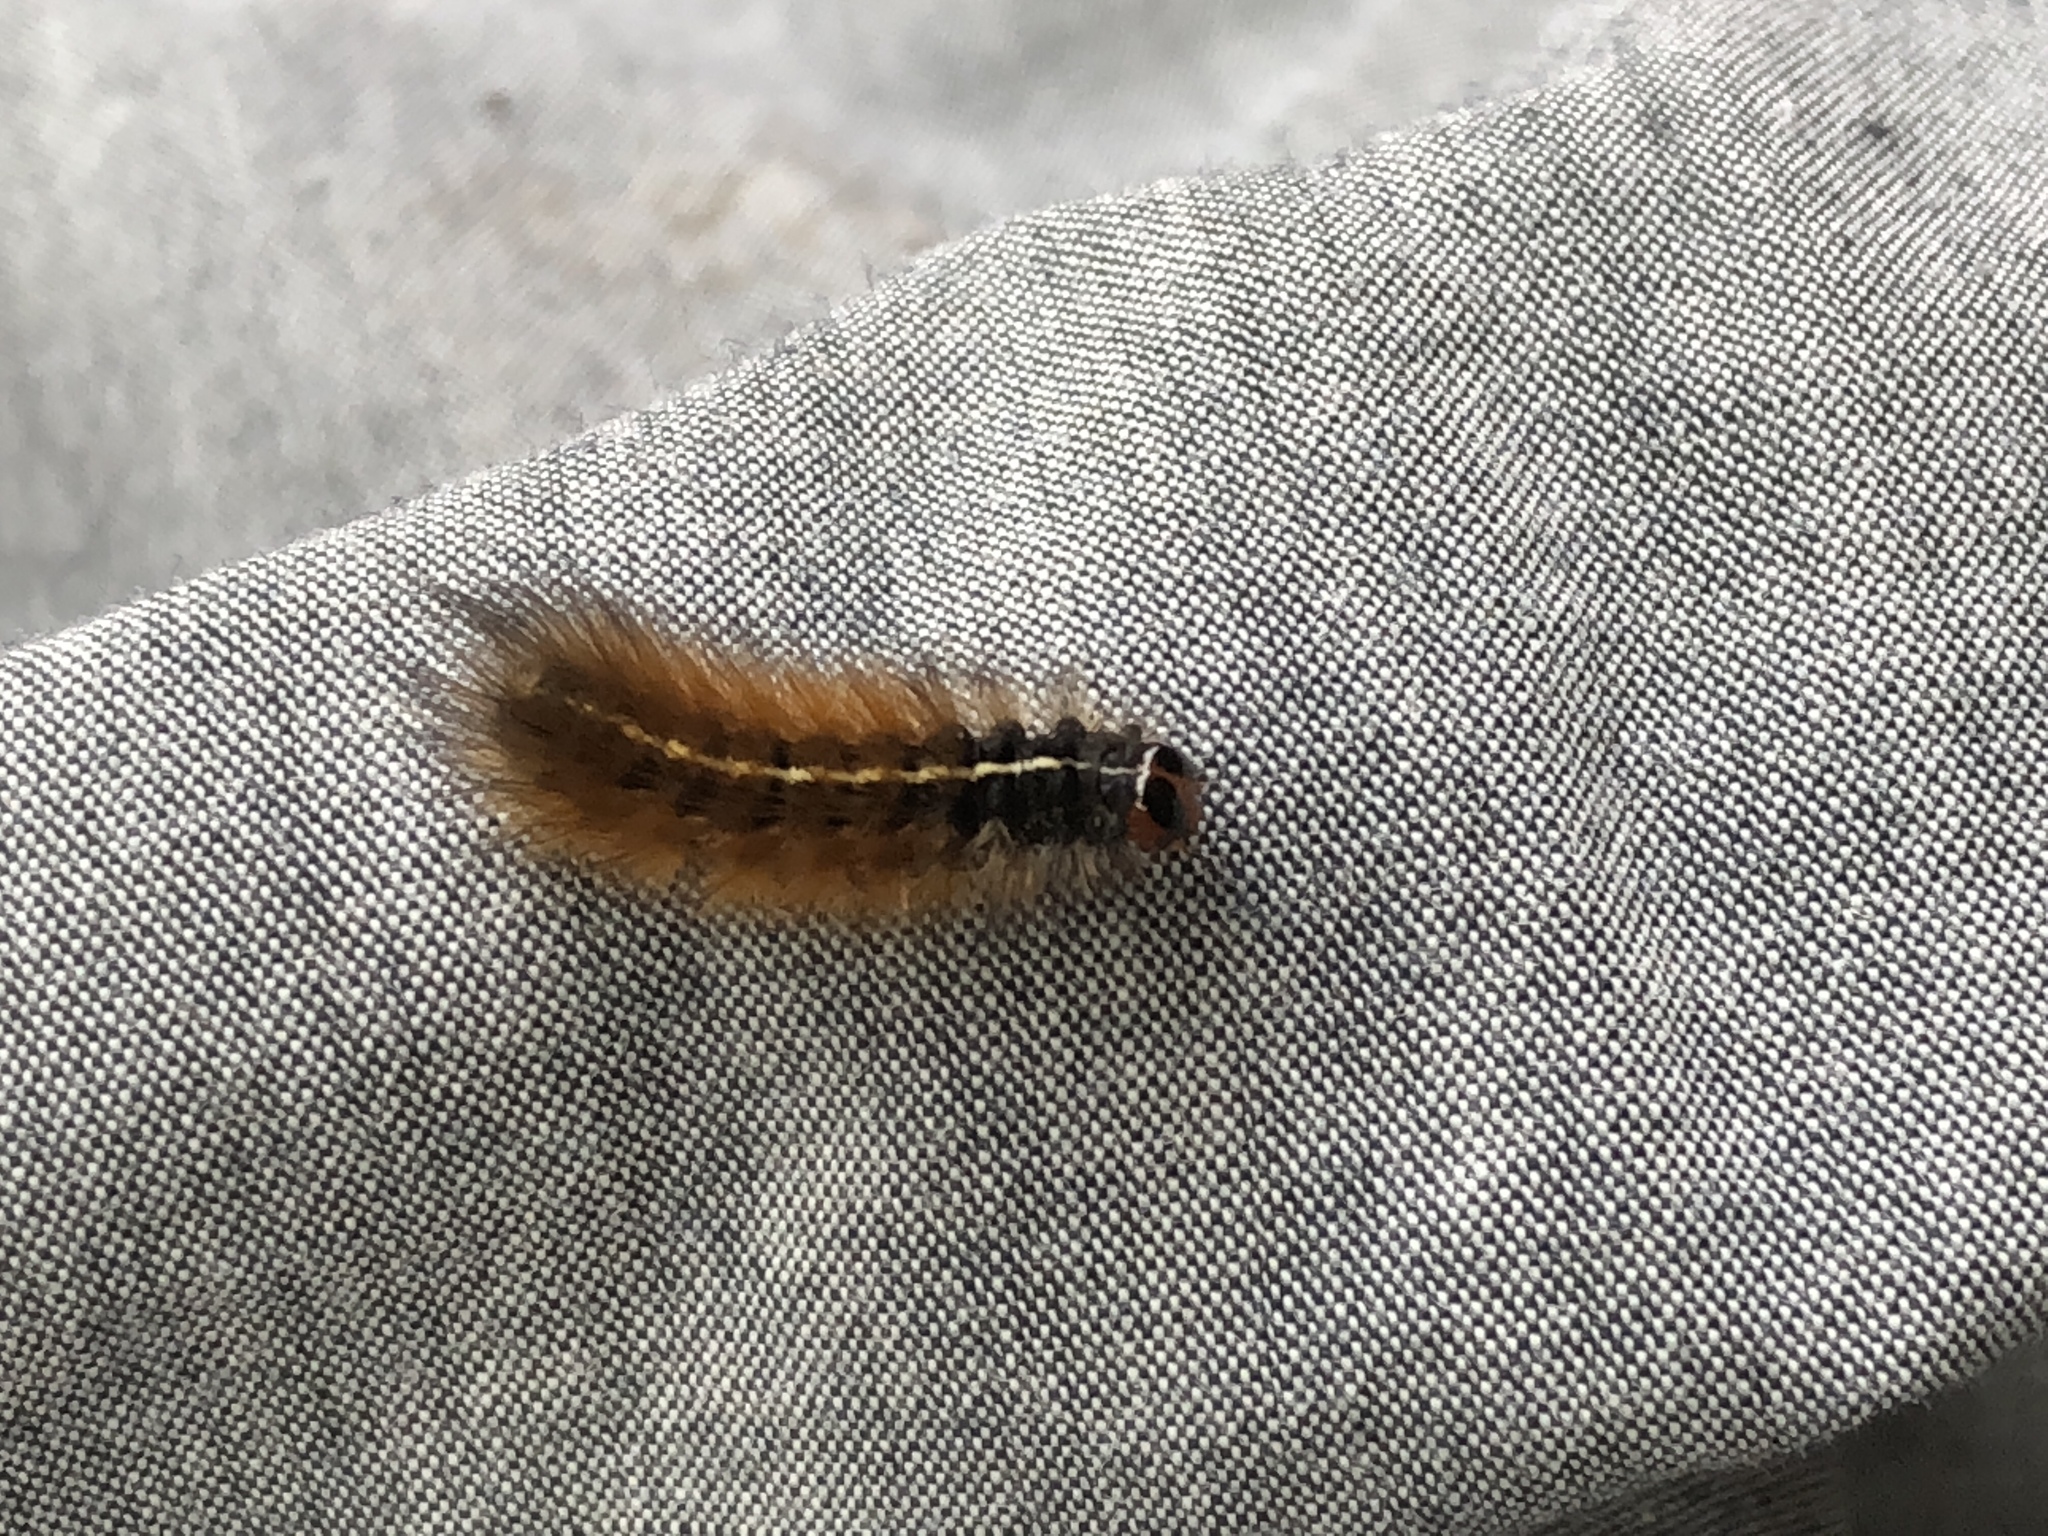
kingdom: Animalia
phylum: Arthropoda
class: Insecta
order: Lepidoptera
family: Erebidae
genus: Ardices
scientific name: Ardices glatignyi
